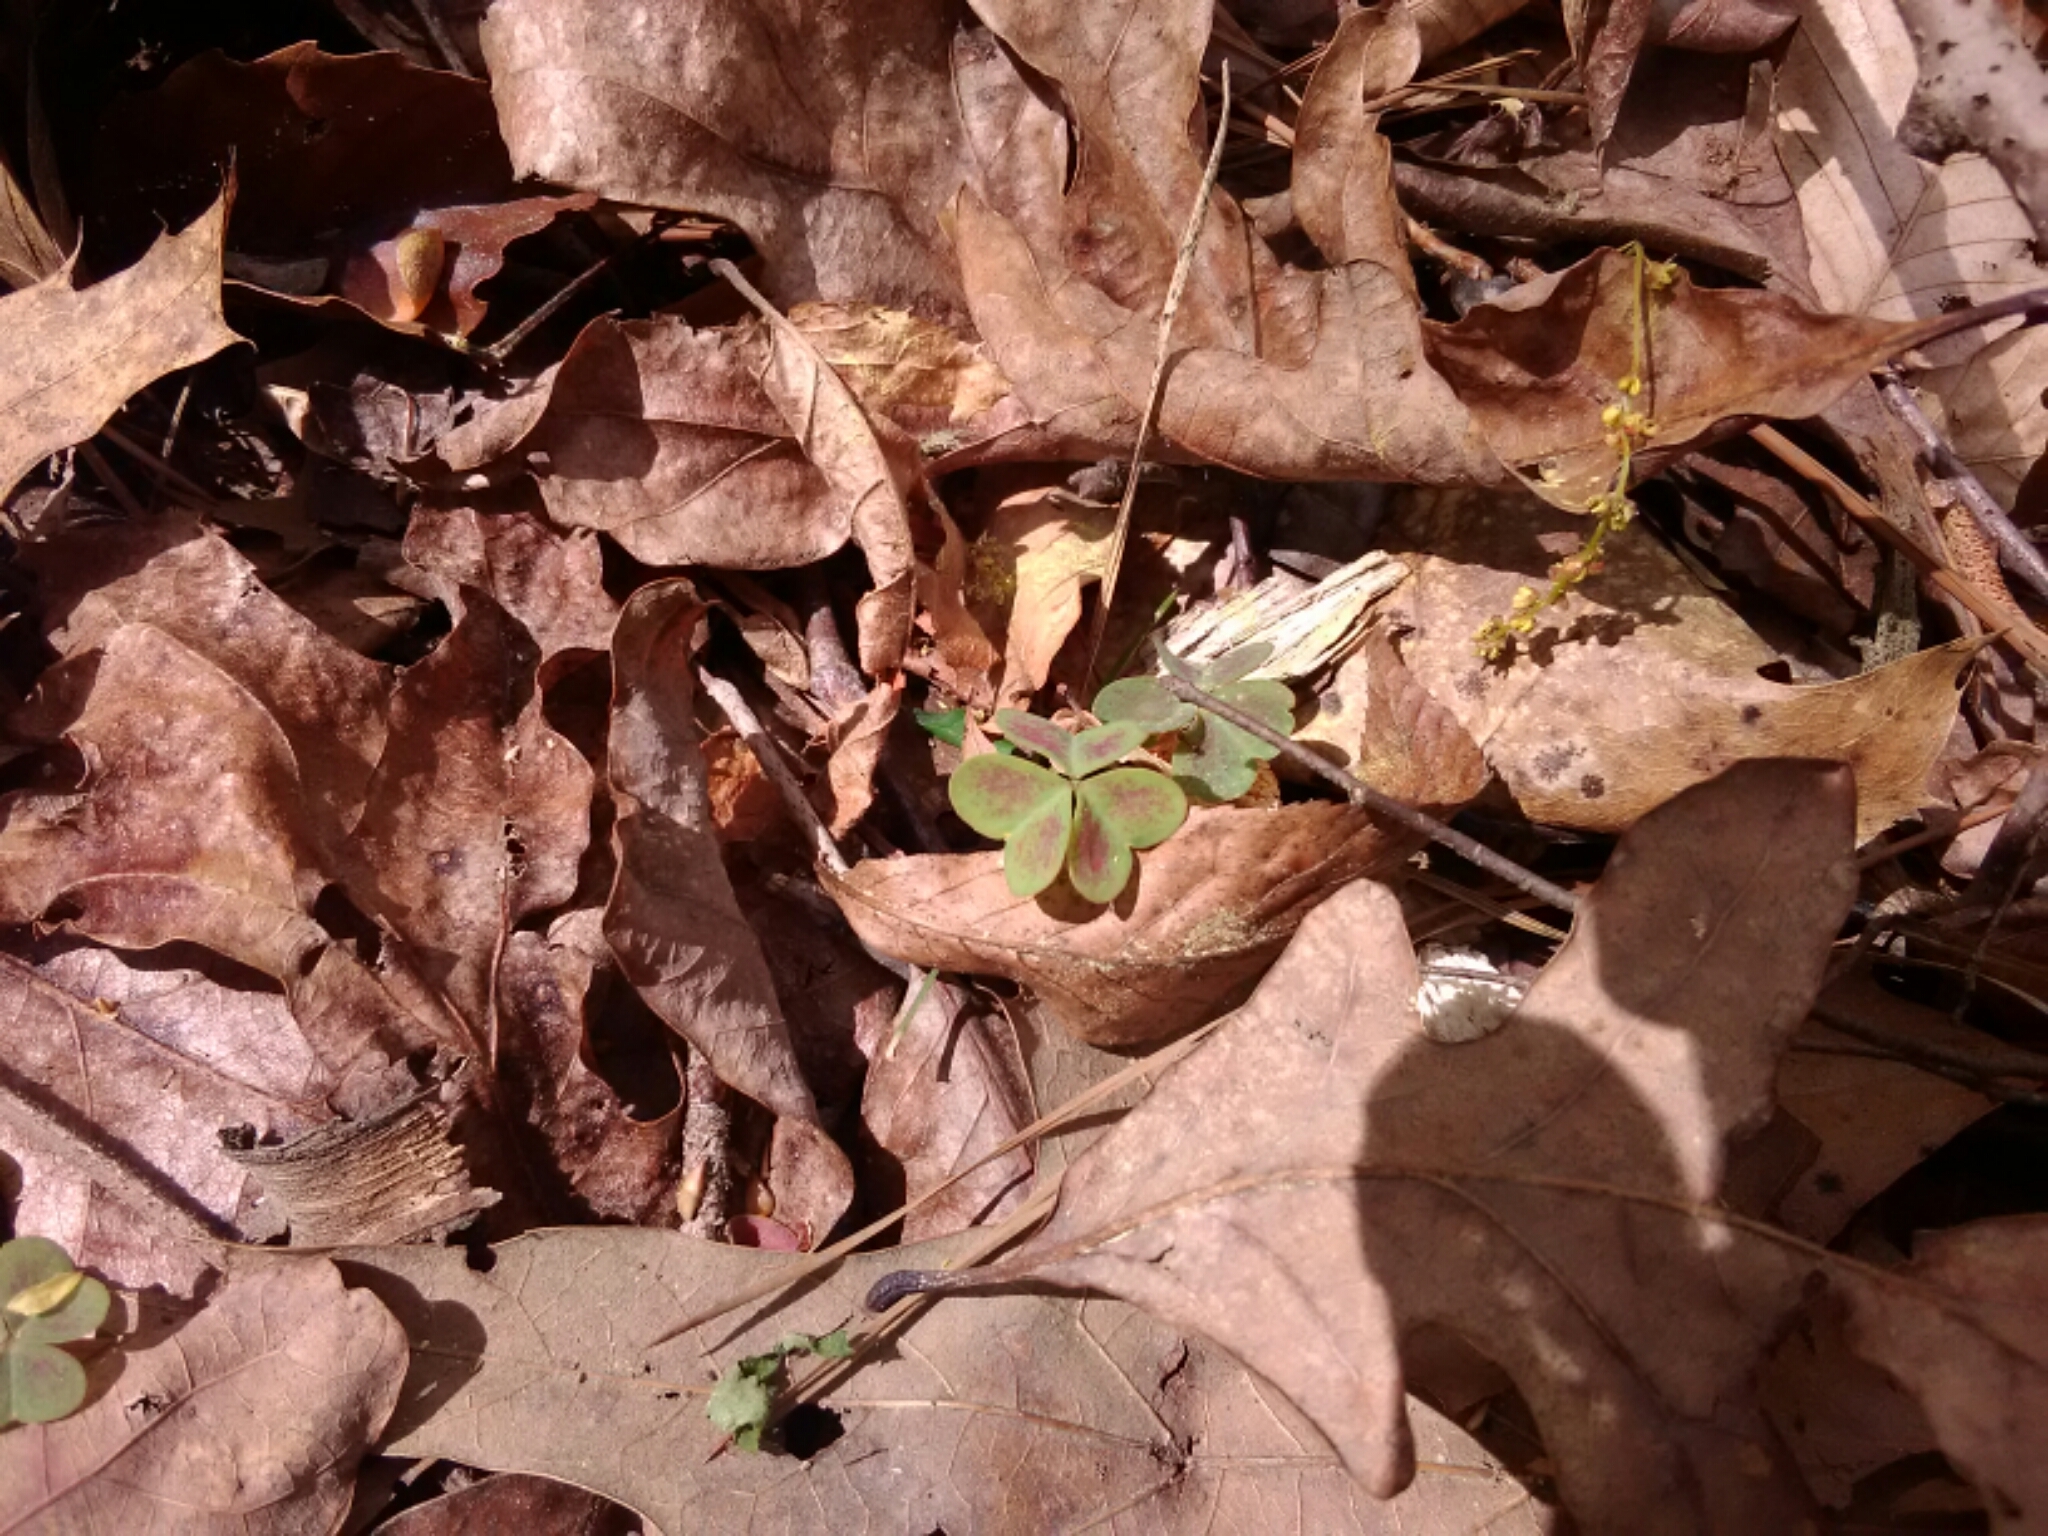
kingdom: Plantae
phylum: Tracheophyta
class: Magnoliopsida
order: Oxalidales
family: Oxalidaceae
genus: Oxalis
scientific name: Oxalis violacea
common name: Violet wood-sorrel
